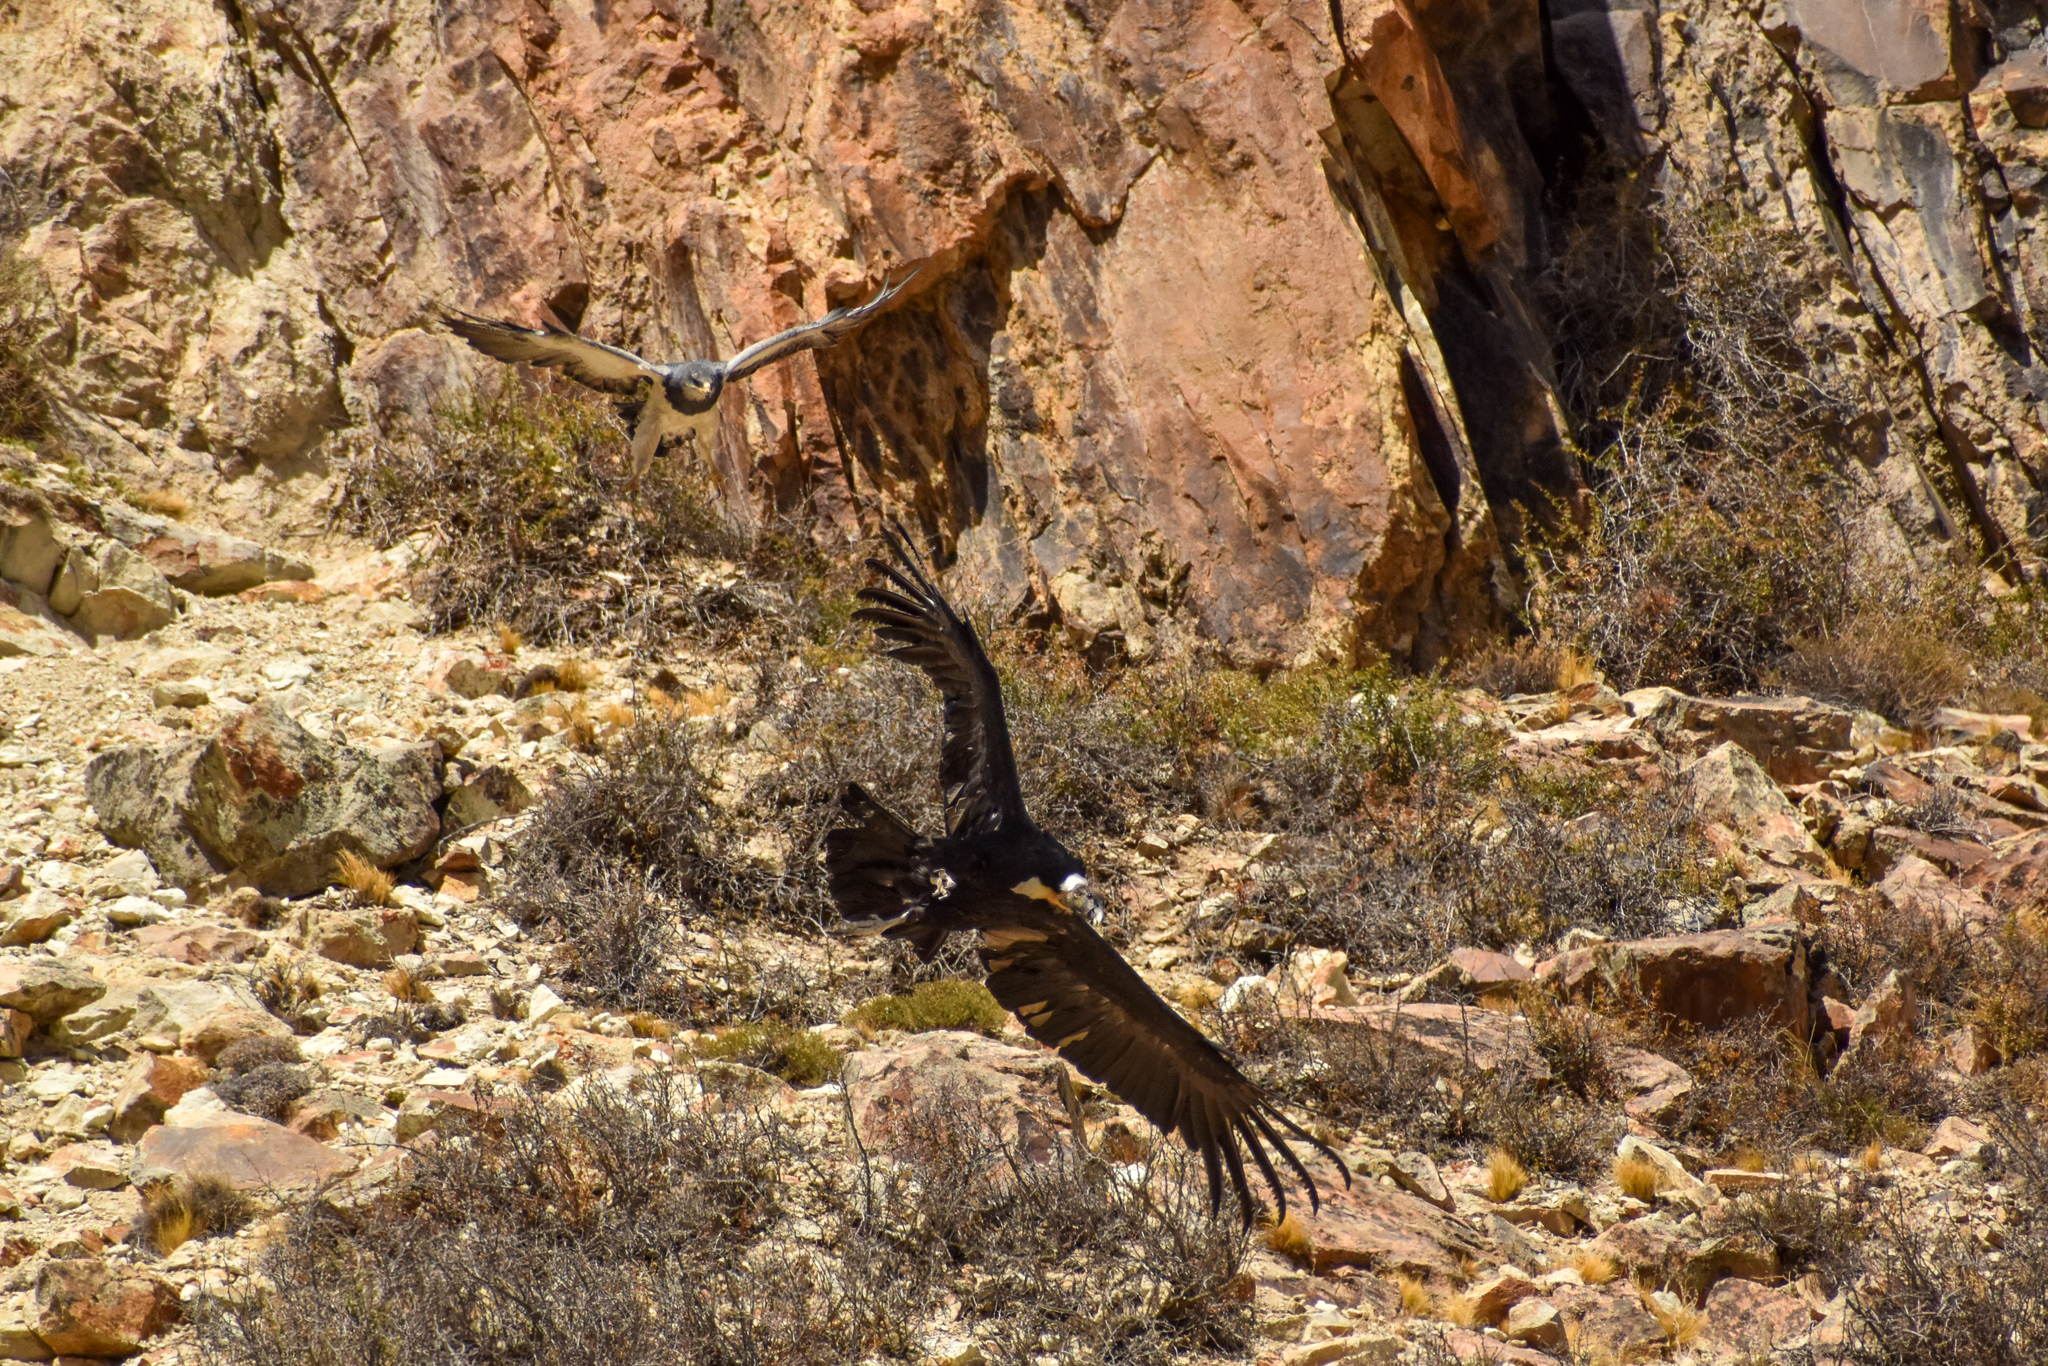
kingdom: Animalia
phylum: Chordata
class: Aves
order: Accipitriformes
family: Cathartidae
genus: Vultur
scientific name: Vultur gryphus
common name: Andean condor
